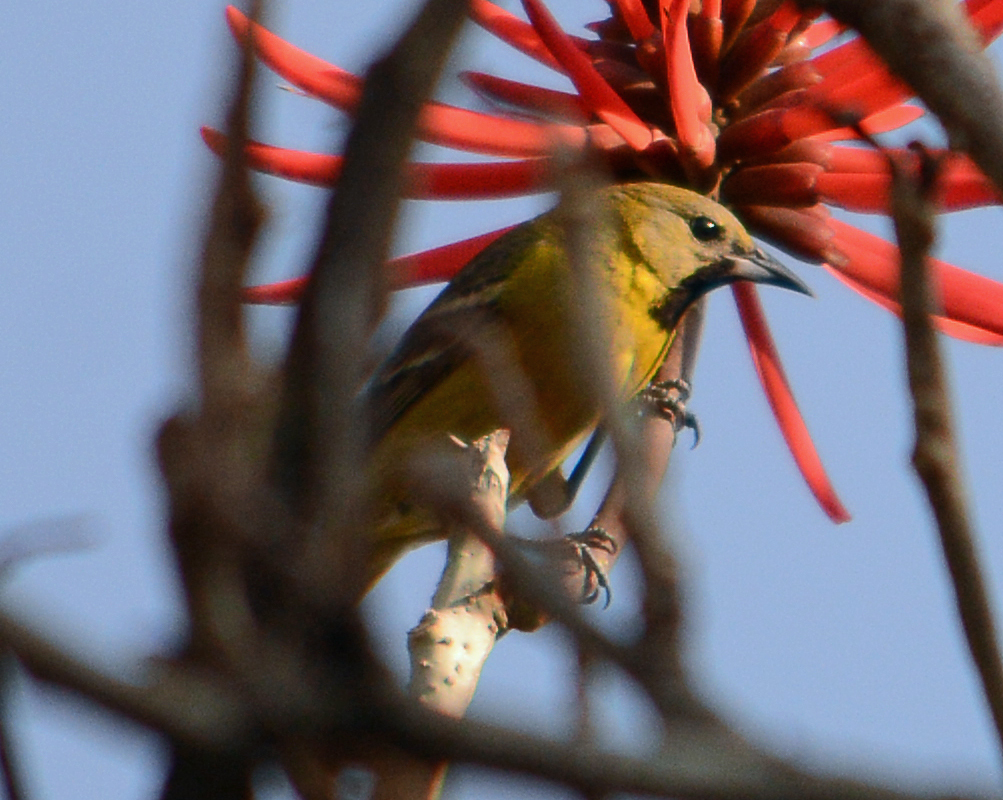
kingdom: Animalia
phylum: Chordata
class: Aves
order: Passeriformes
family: Icteridae
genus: Icterus
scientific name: Icterus spurius
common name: Orchard oriole
